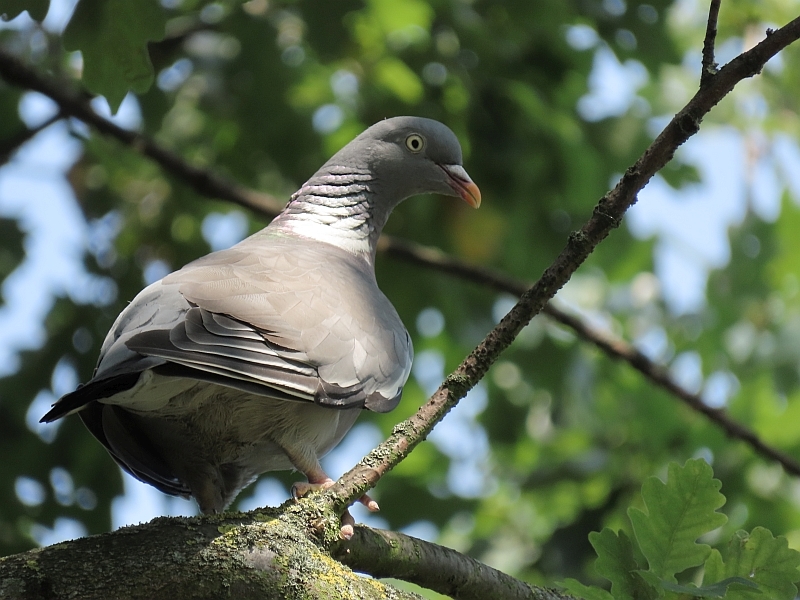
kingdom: Animalia
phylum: Chordata
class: Aves
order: Columbiformes
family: Columbidae
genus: Columba
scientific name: Columba palumbus
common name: Common wood pigeon
